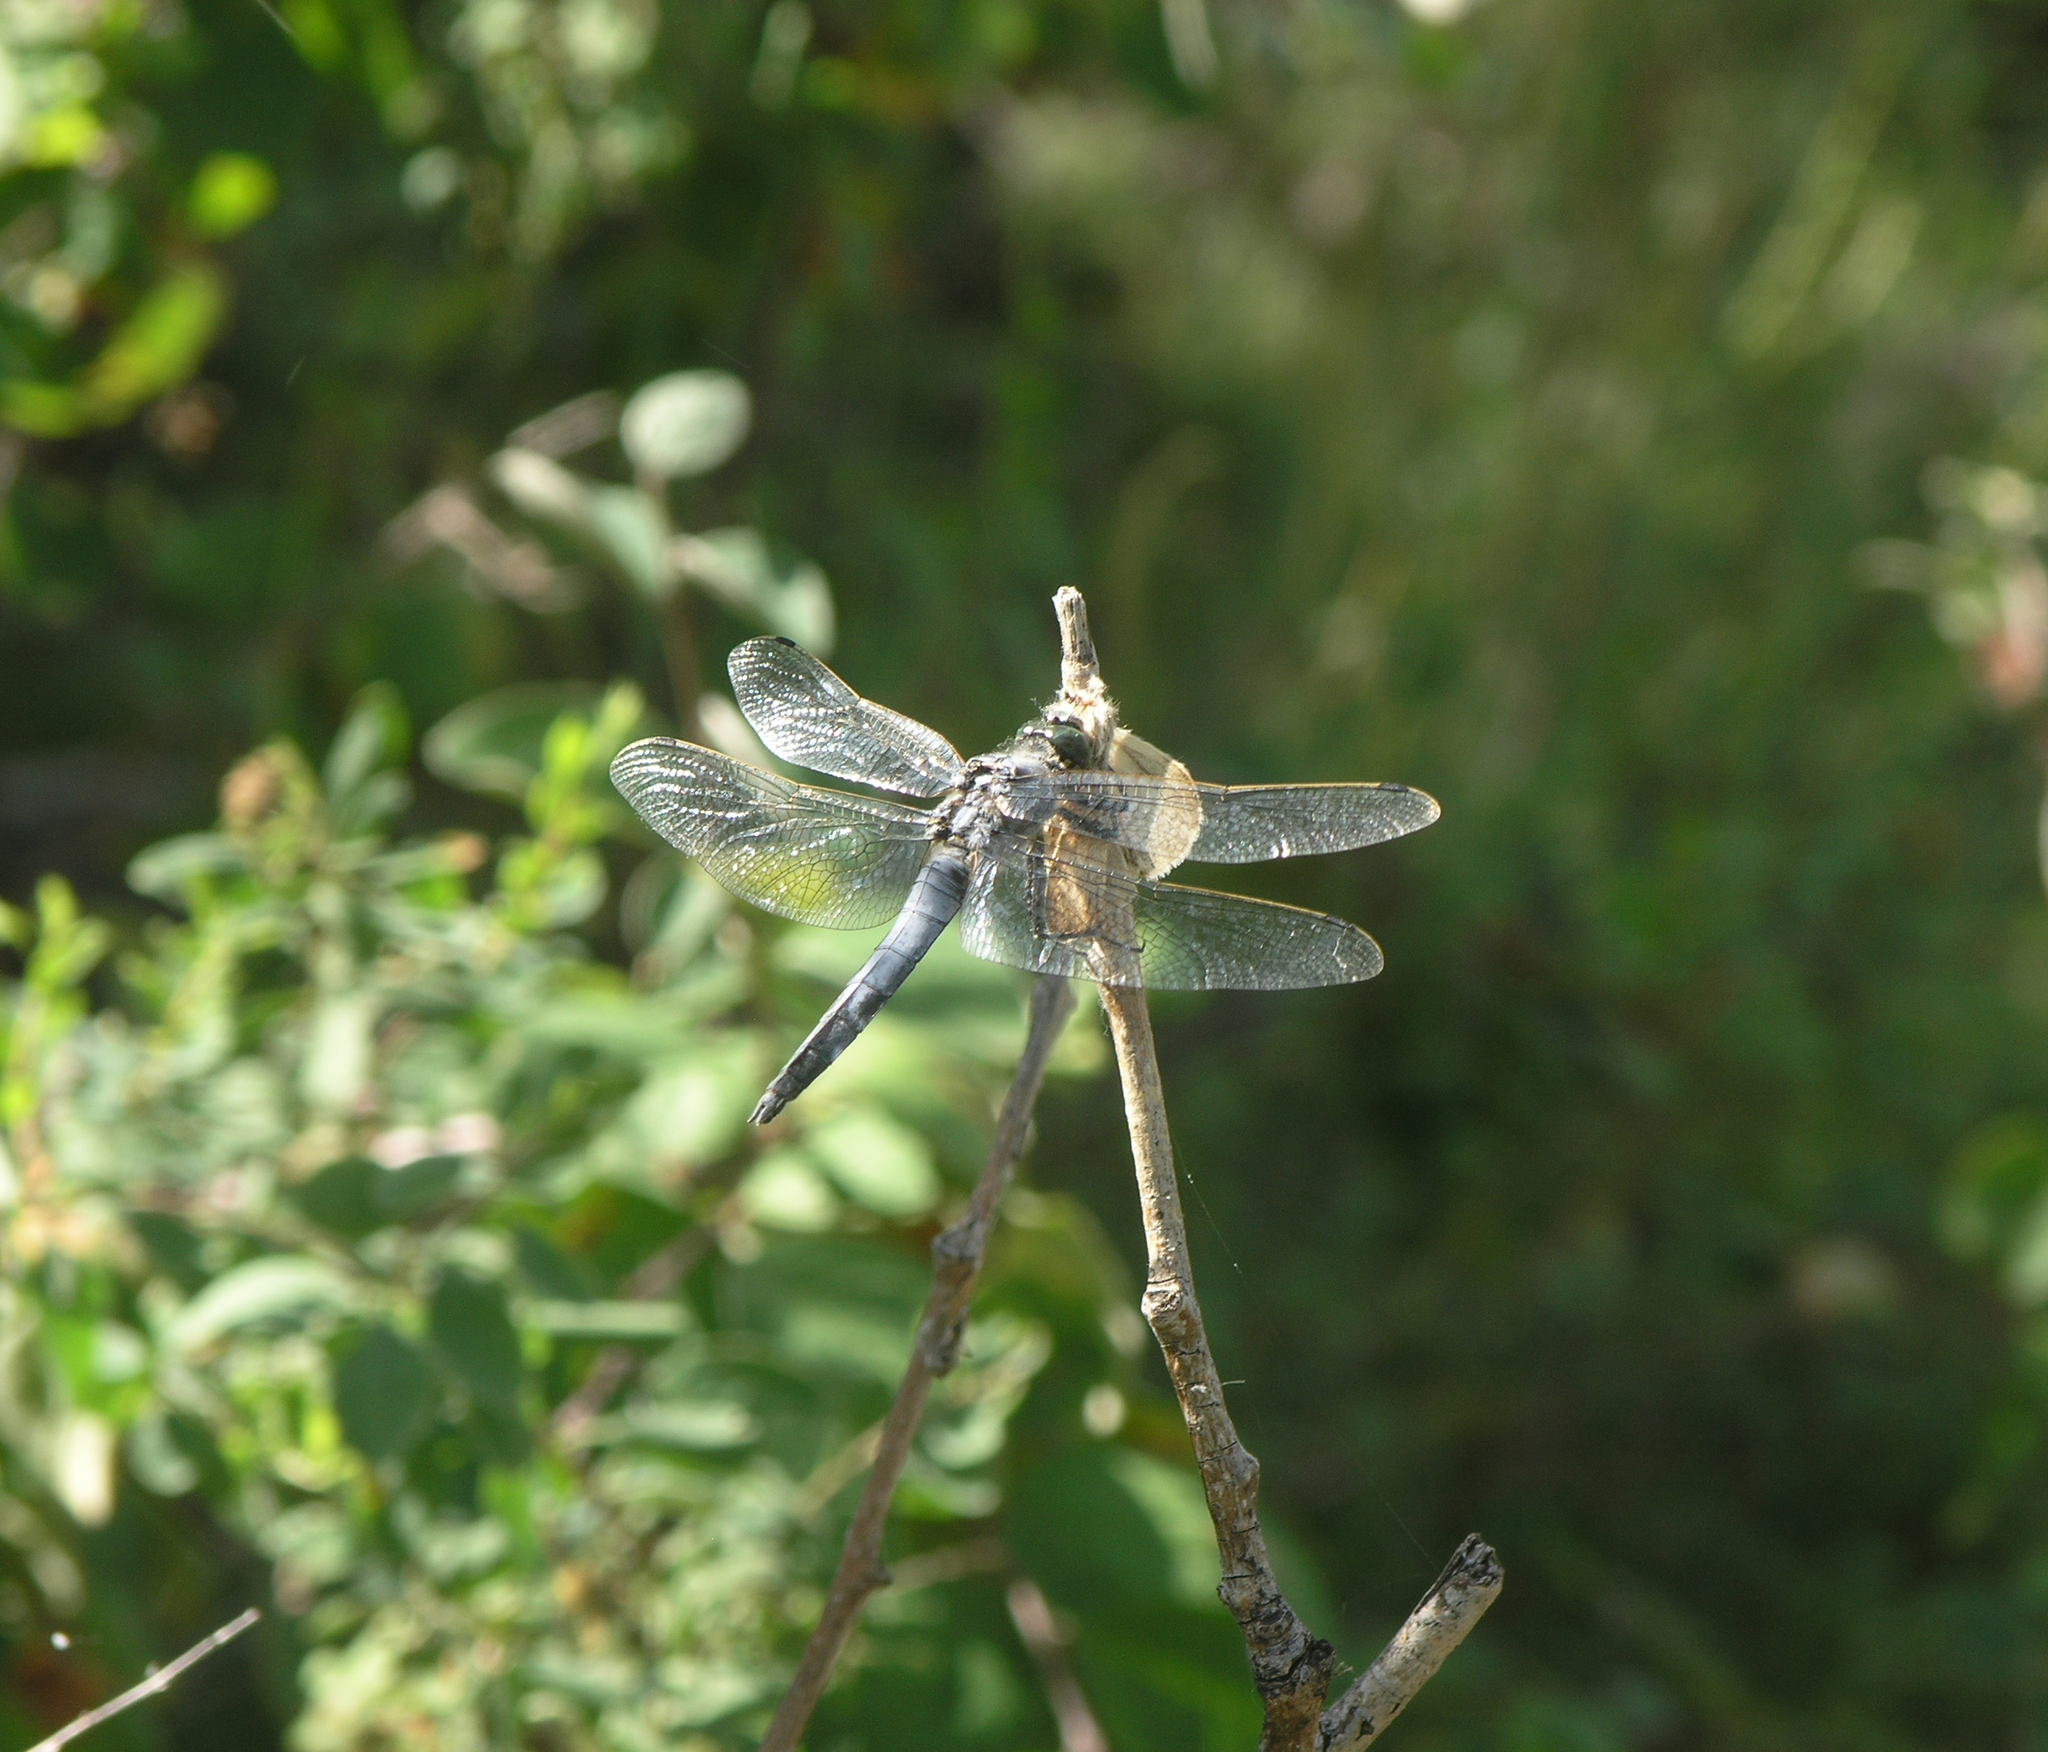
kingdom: Animalia
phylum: Arthropoda
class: Insecta
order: Odonata
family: Libellulidae
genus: Orthetrum
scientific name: Orthetrum cancellatum
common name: Black-tailed skimmer
